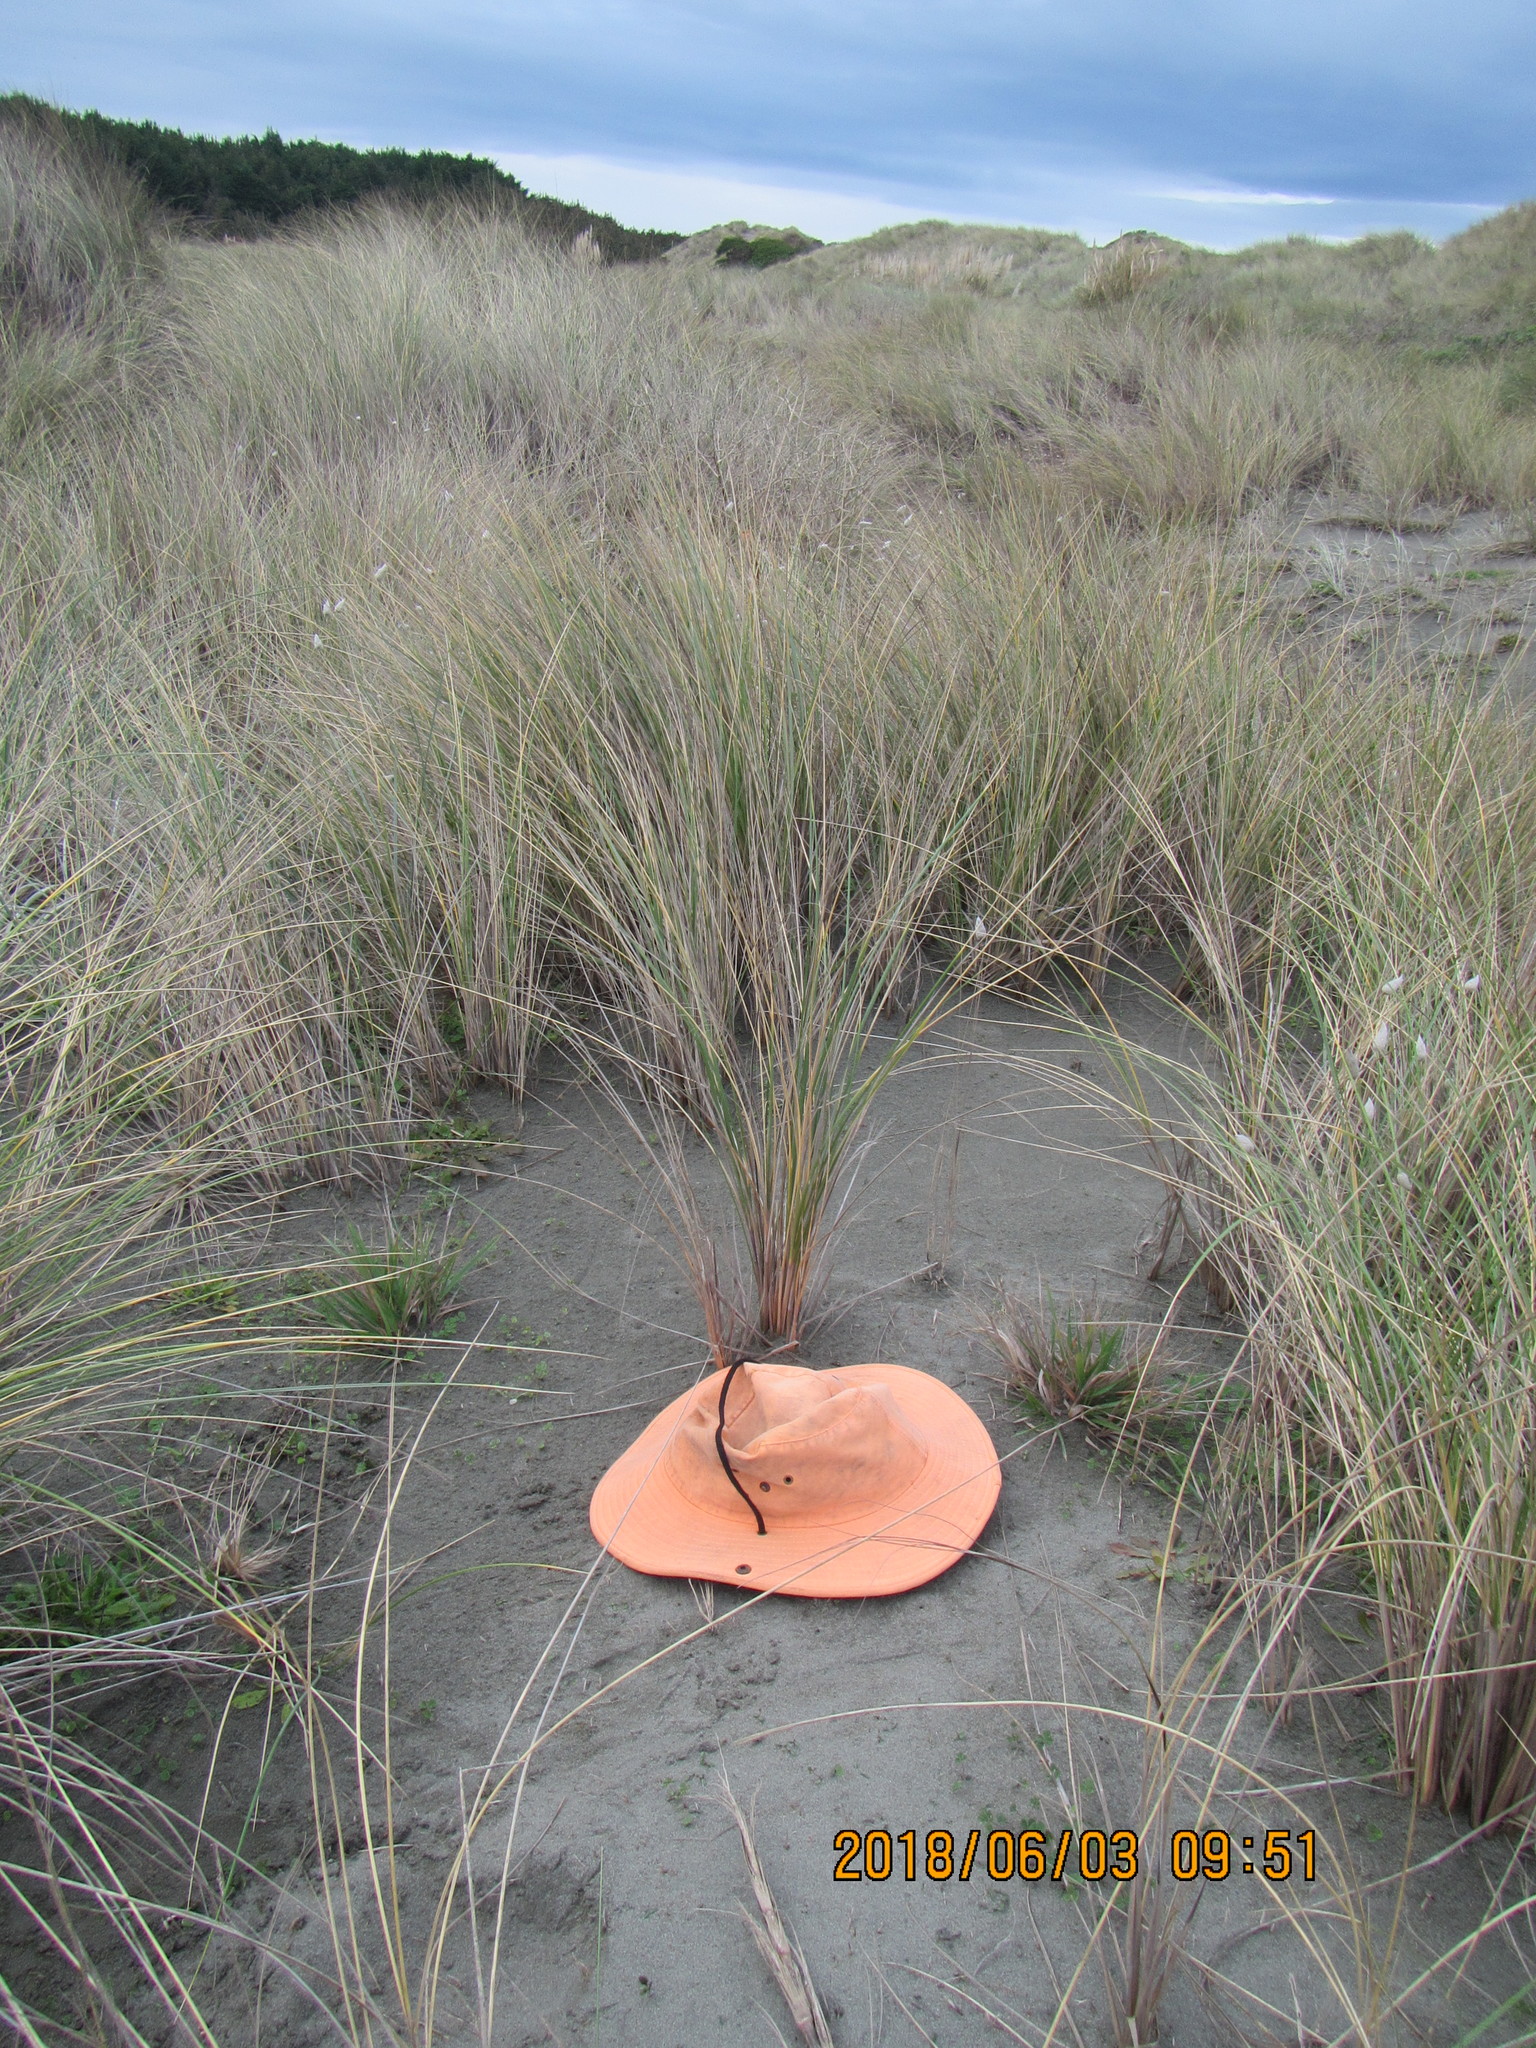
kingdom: Plantae
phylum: Tracheophyta
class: Liliopsida
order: Poales
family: Poaceae
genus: Lachnagrostis
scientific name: Lachnagrostis billardierei
